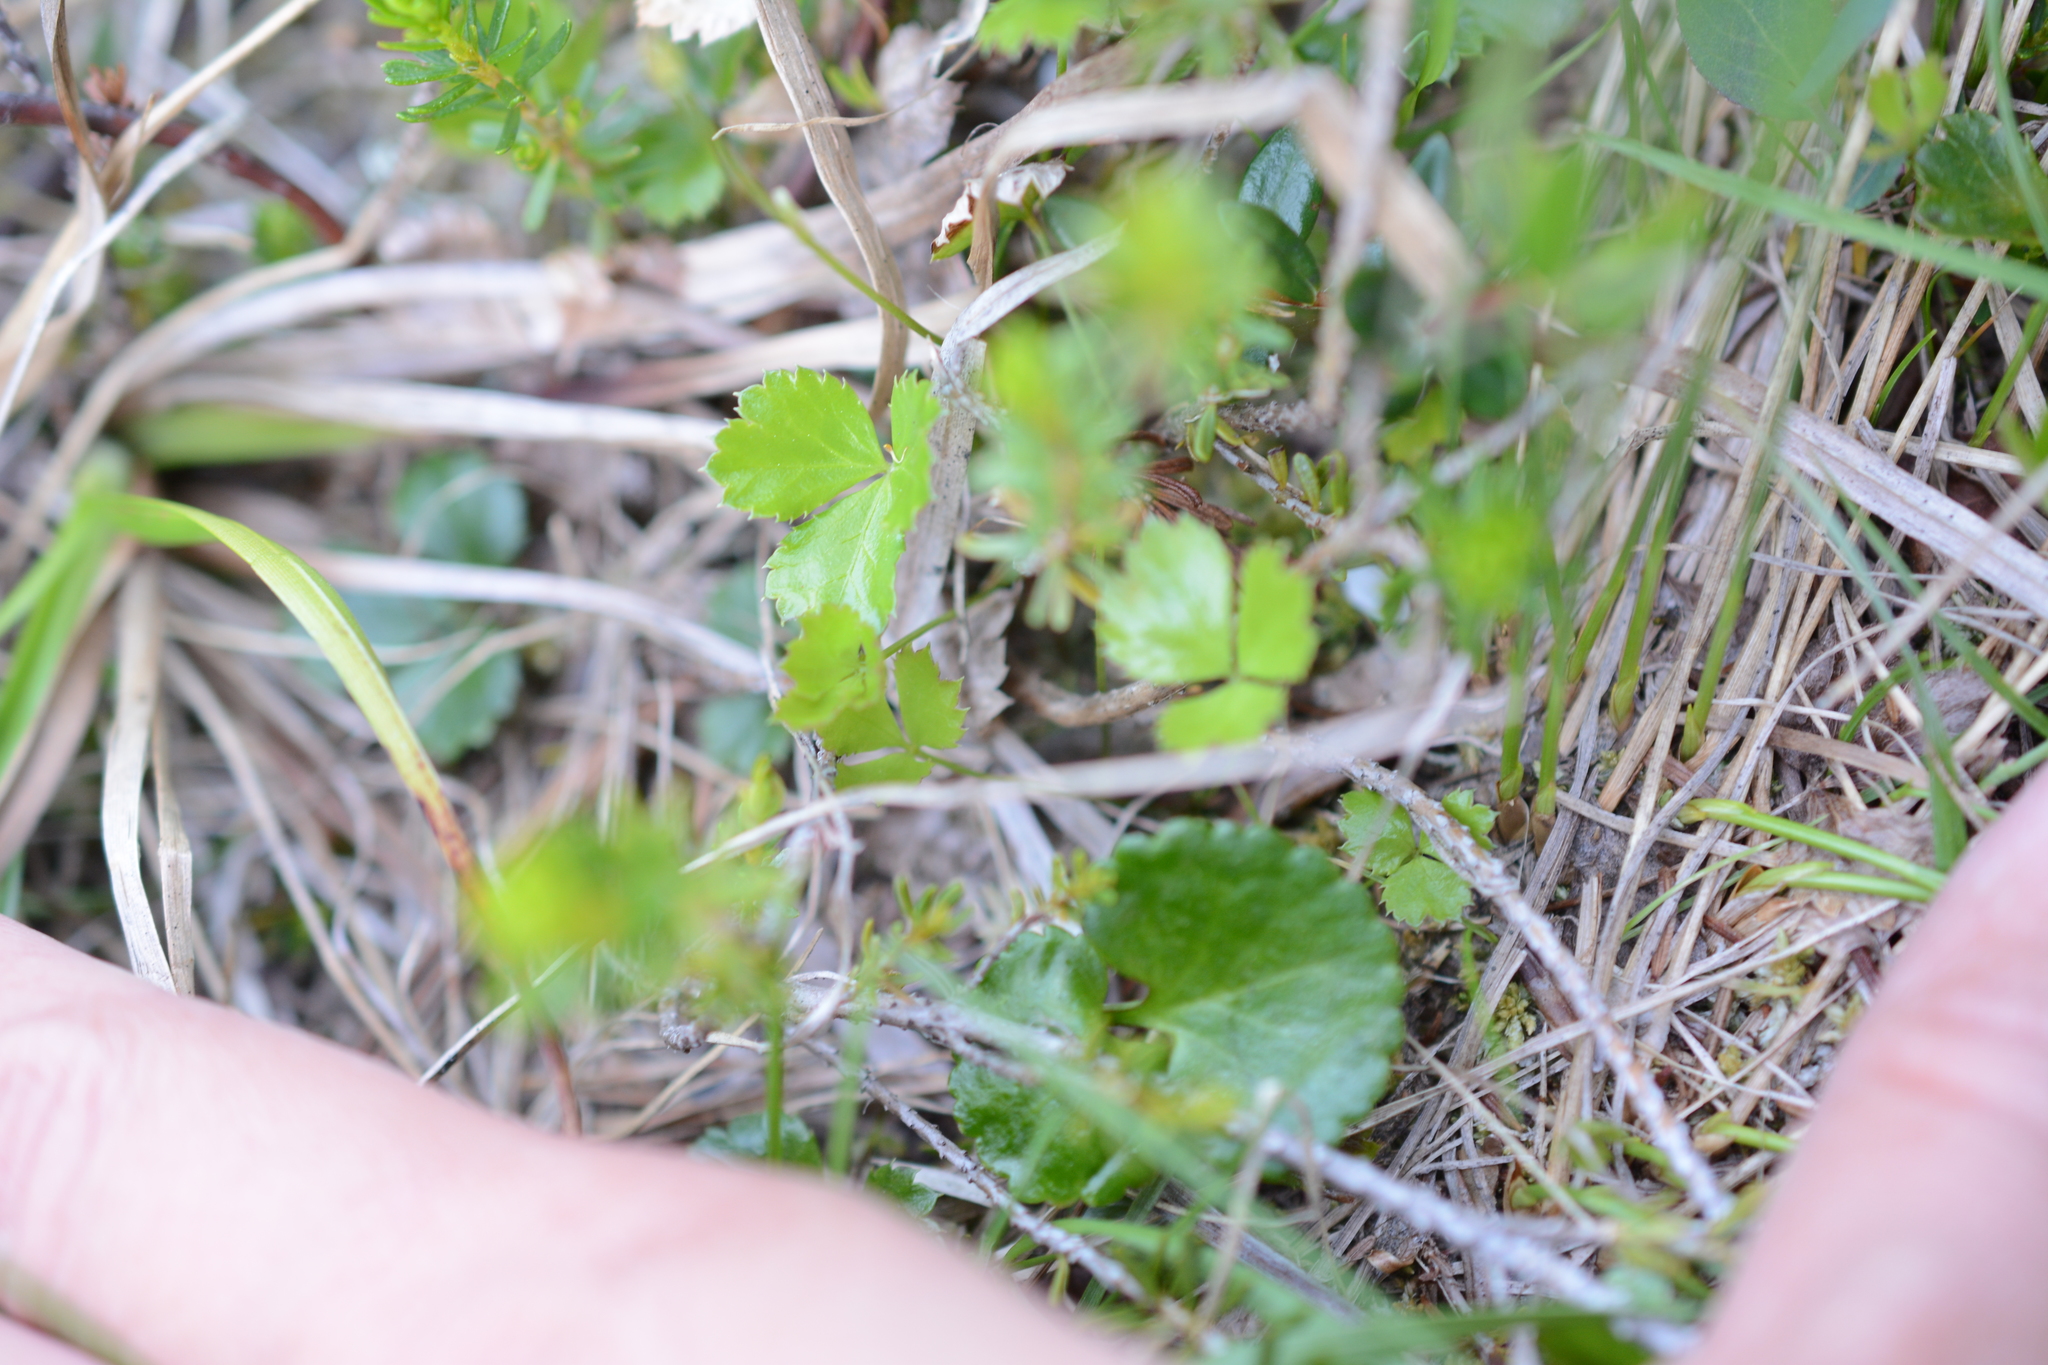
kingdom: Plantae
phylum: Tracheophyta
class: Magnoliopsida
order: Ranunculales
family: Ranunculaceae
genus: Coptis
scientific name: Coptis trifolia
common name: Canker-root
